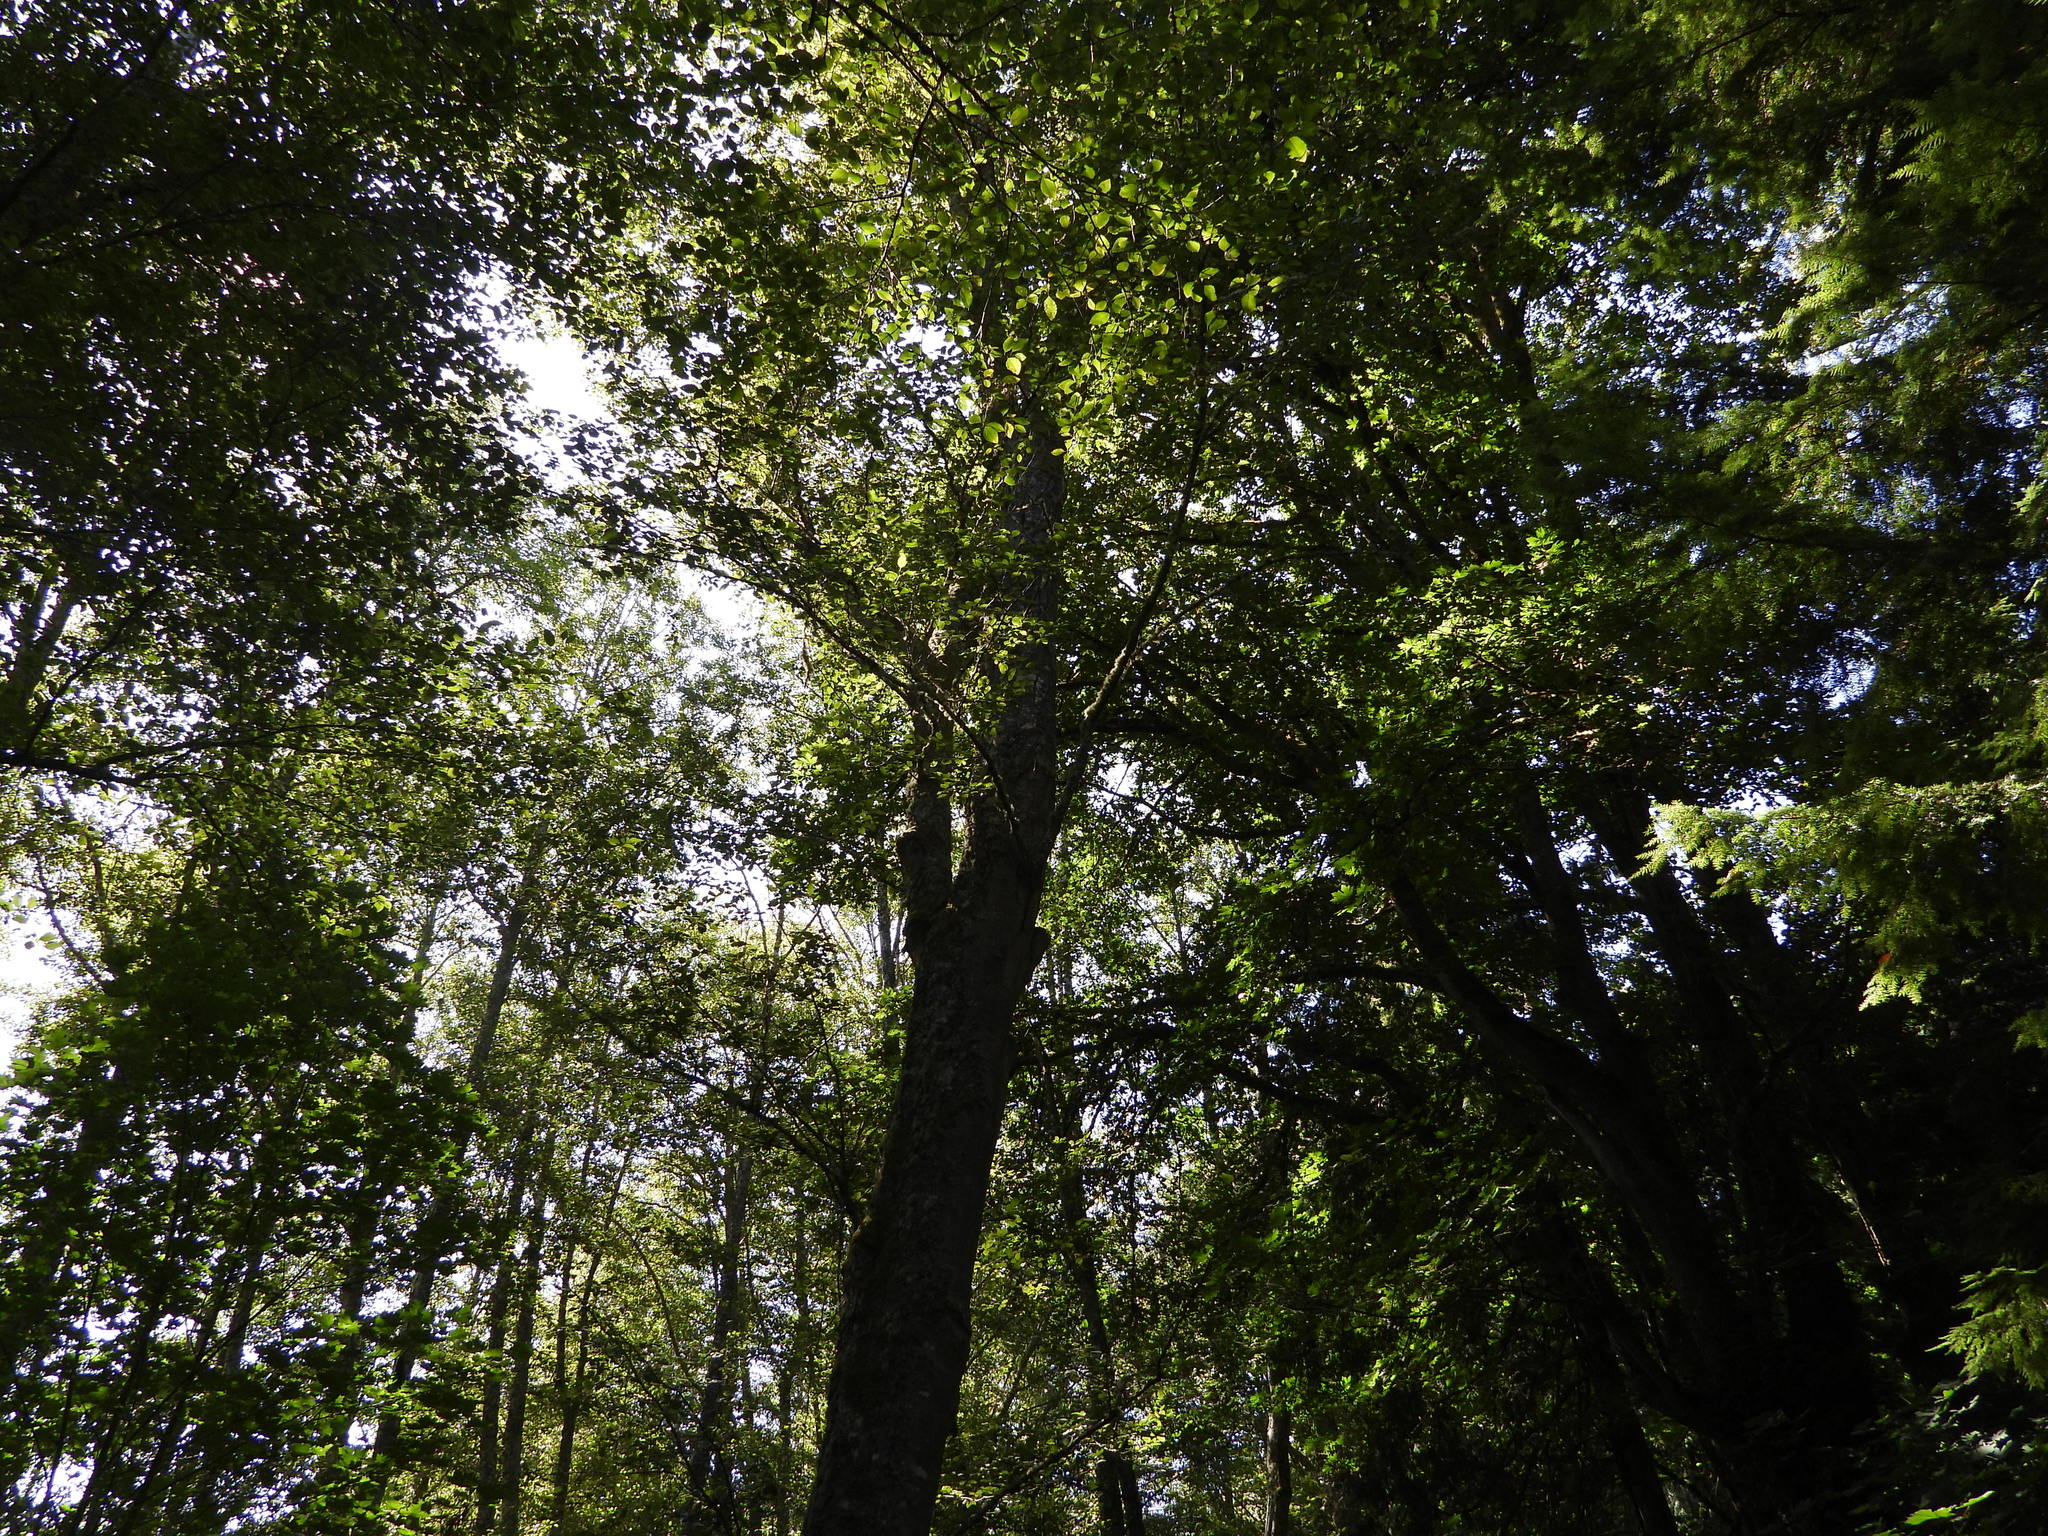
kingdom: Plantae
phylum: Tracheophyta
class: Magnoliopsida
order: Fagales
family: Betulaceae
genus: Alnus
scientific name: Alnus rubra
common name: Red alder
